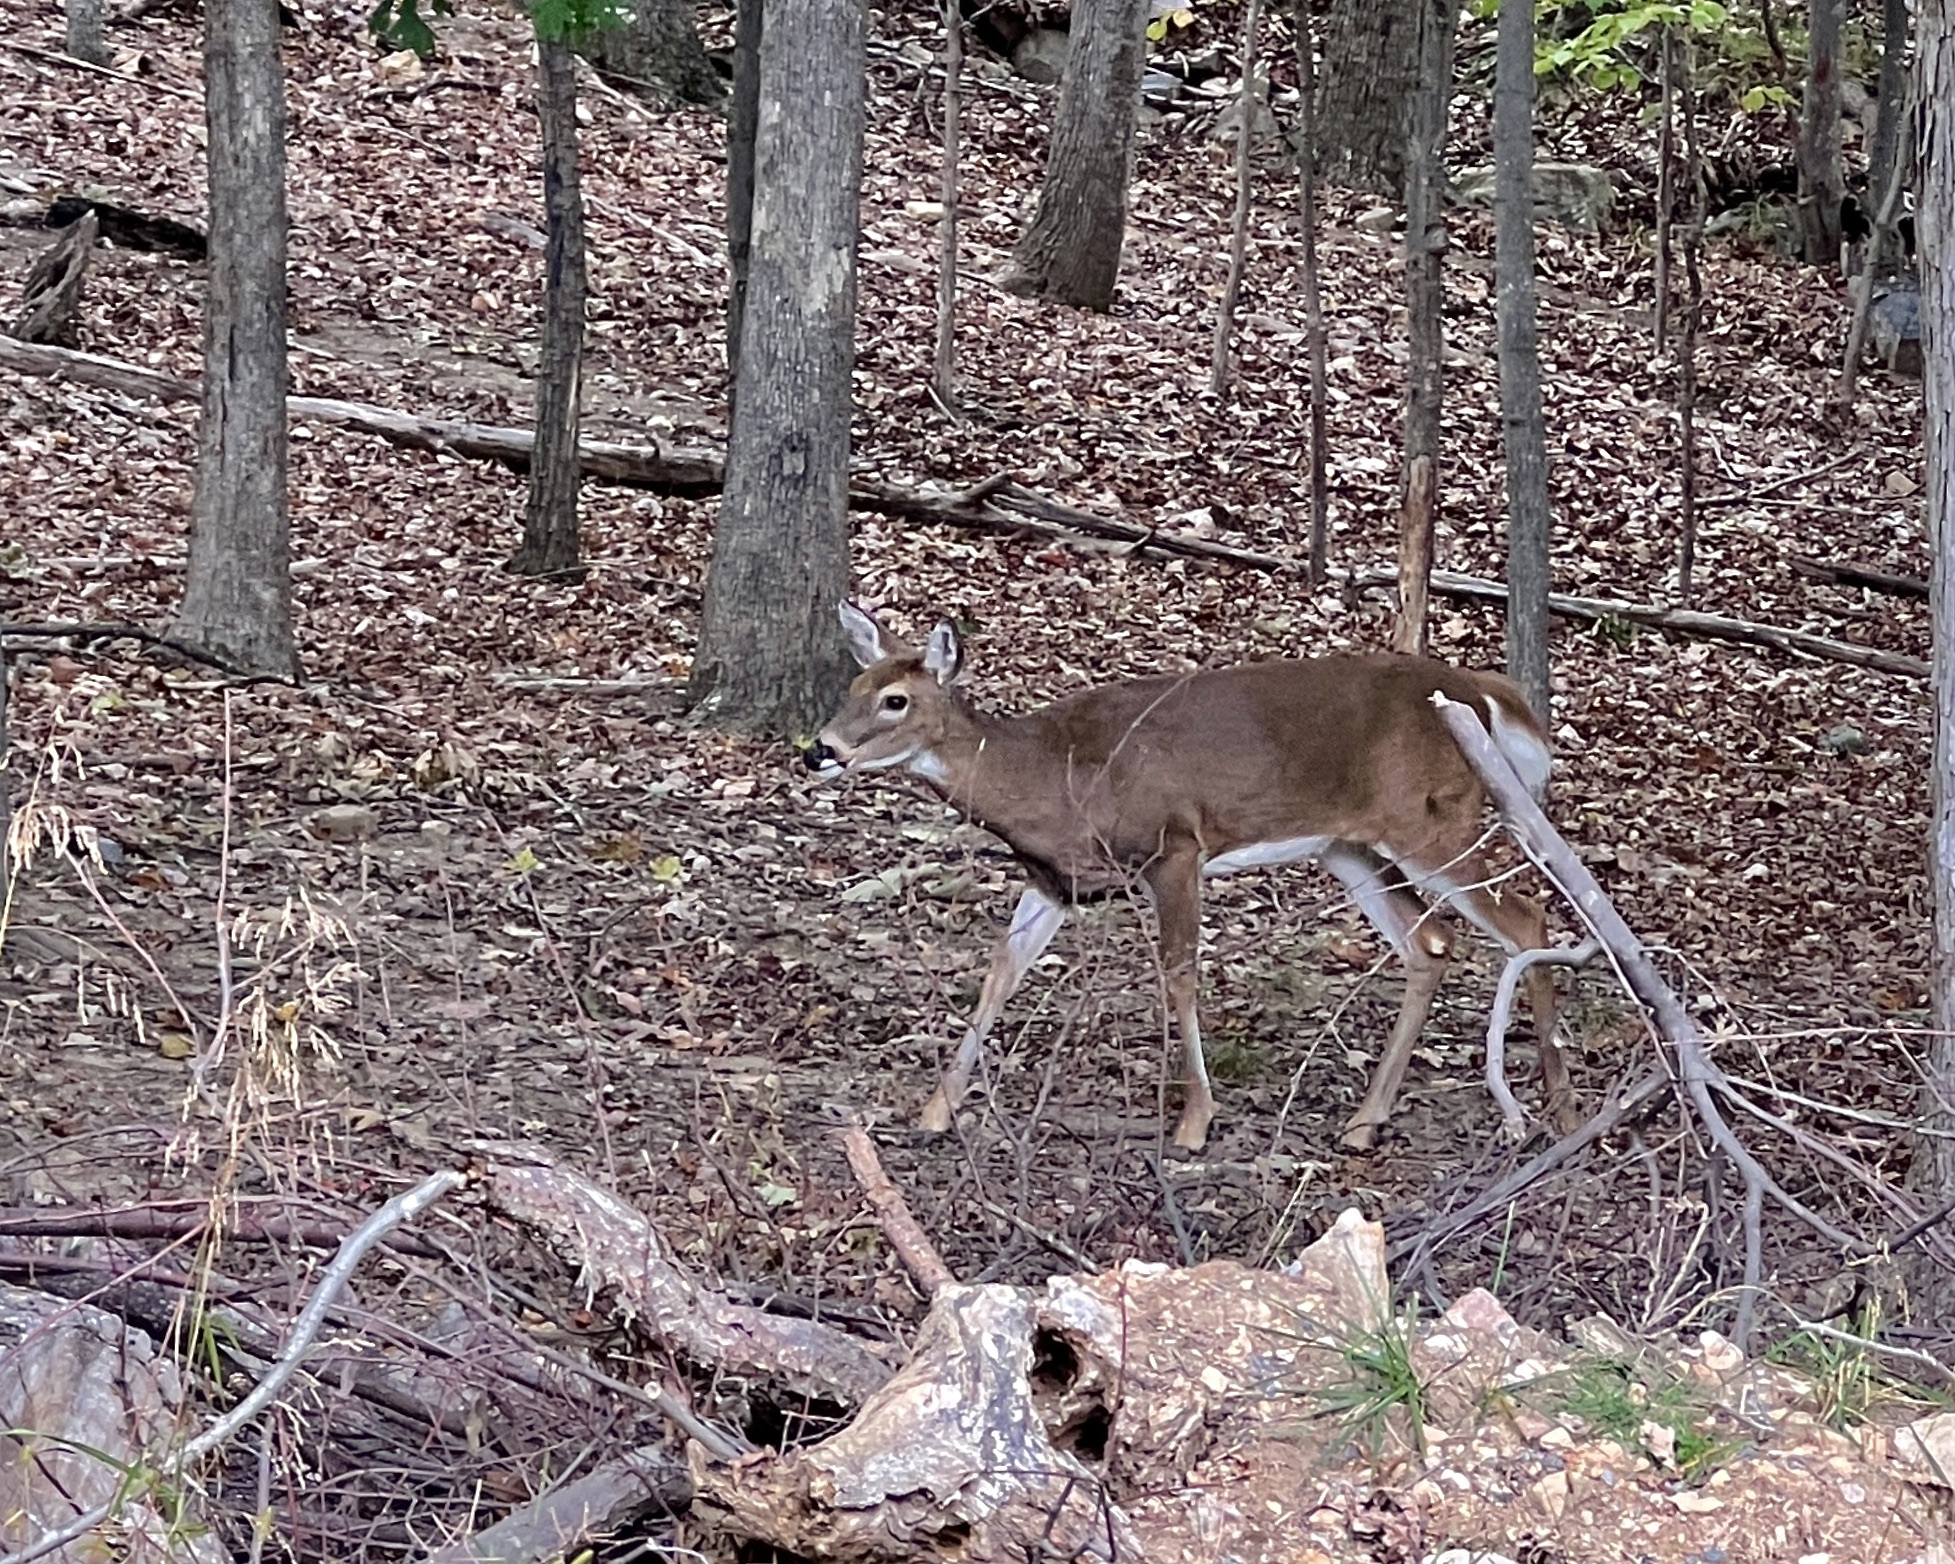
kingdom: Animalia
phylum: Chordata
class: Mammalia
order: Artiodactyla
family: Cervidae
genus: Odocoileus
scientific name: Odocoileus virginianus
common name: White-tailed deer
